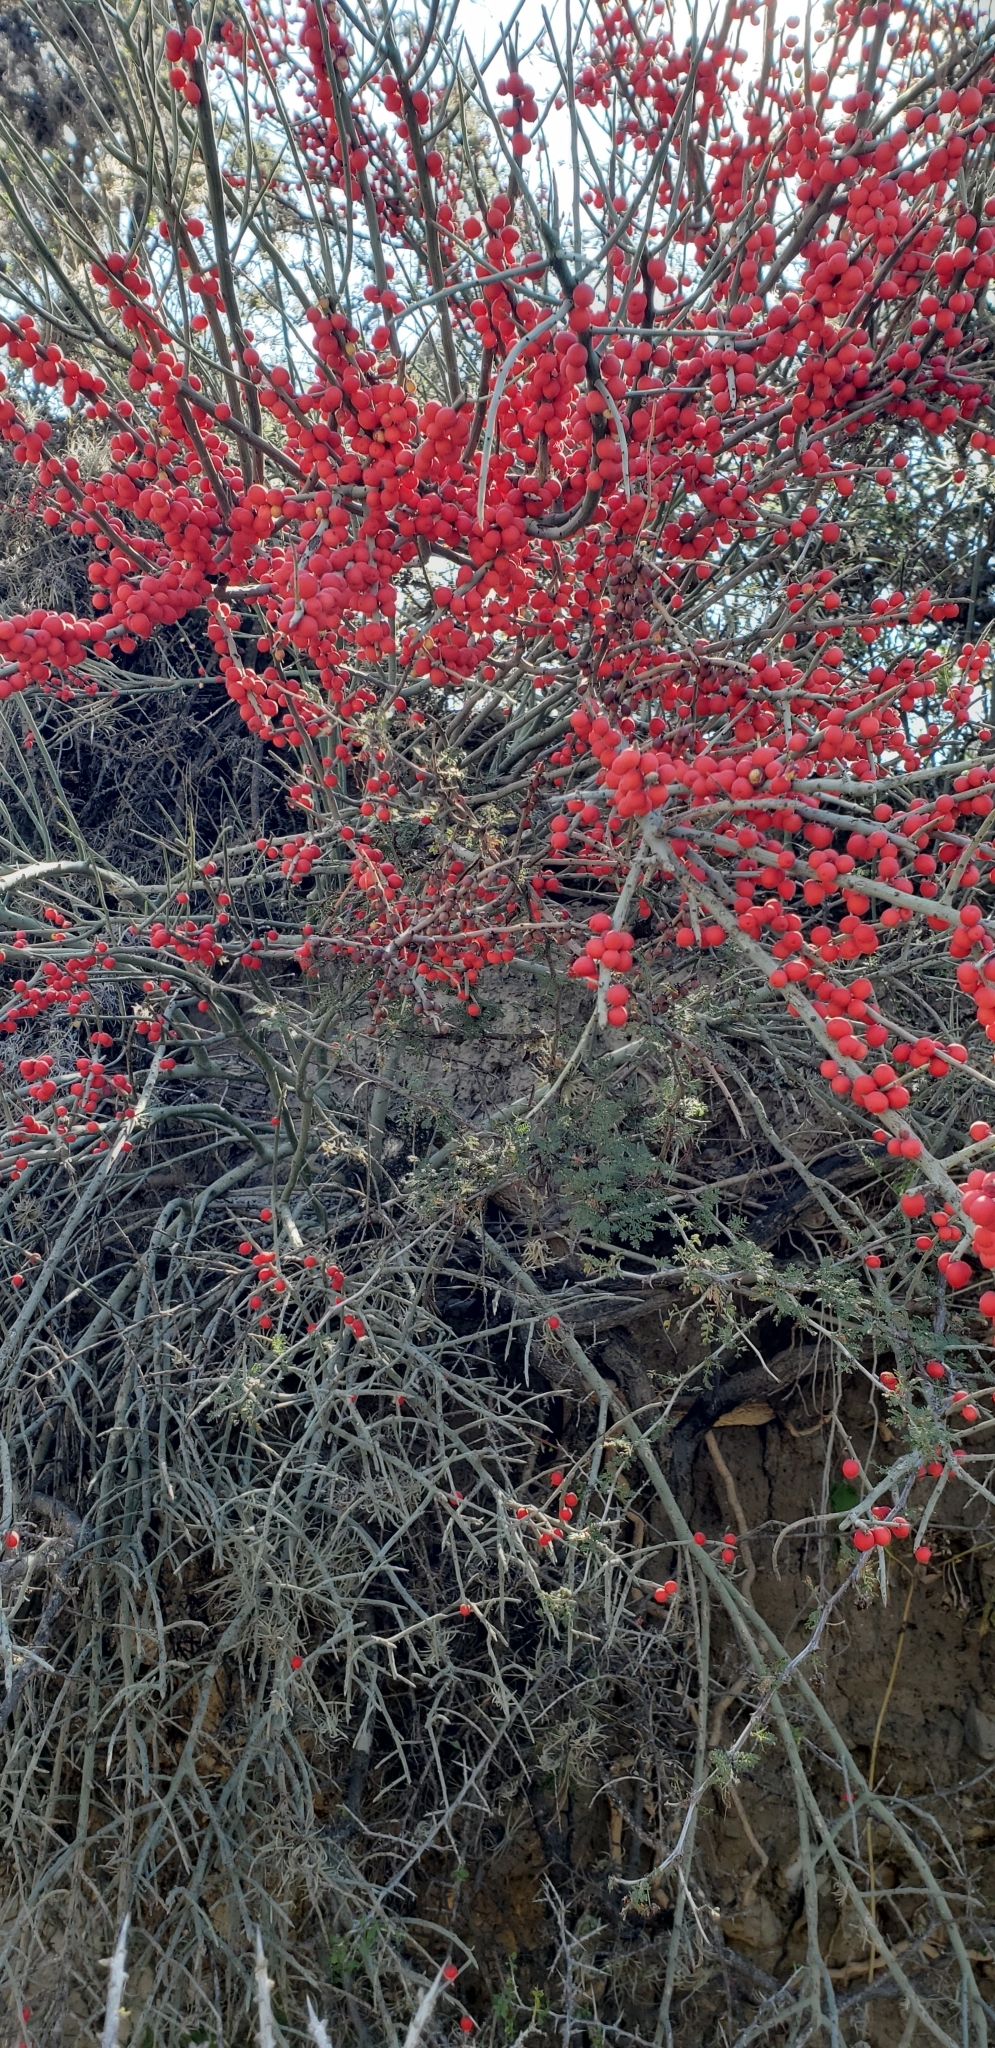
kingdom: Plantae
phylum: Tracheophyta
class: Magnoliopsida
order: Sapindales
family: Simaroubaceae
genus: Castela
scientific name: Castela erecta
